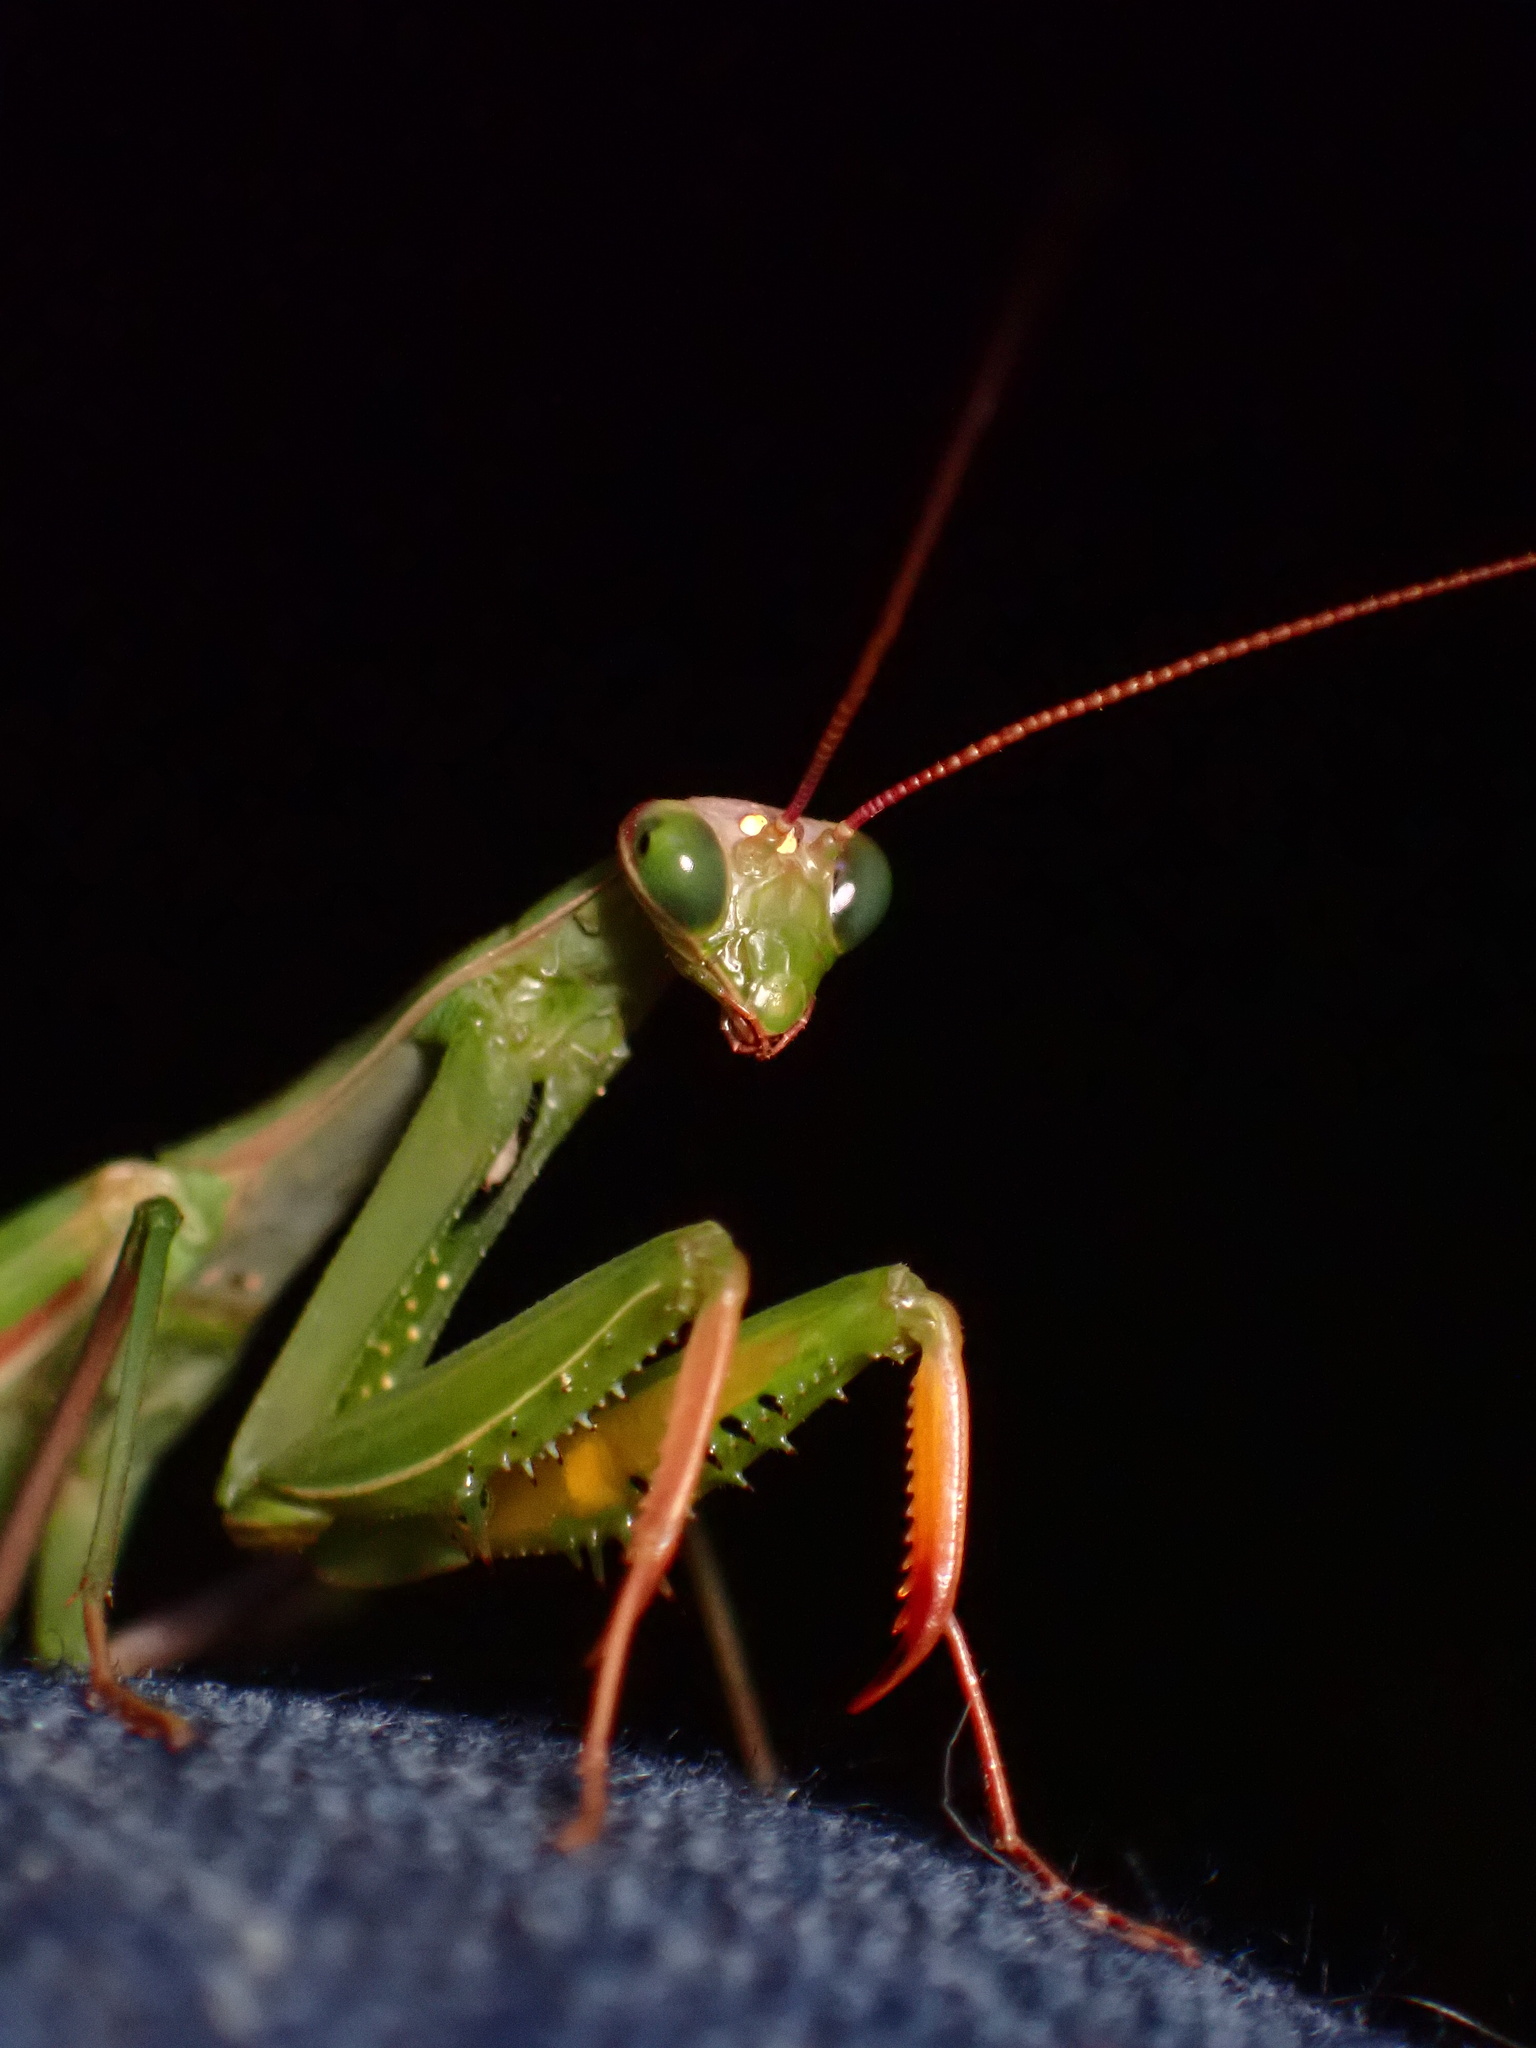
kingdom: Animalia
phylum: Arthropoda
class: Insecta
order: Mantodea
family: Mantidae
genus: Mantis
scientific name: Mantis religiosa
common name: Praying mantis
